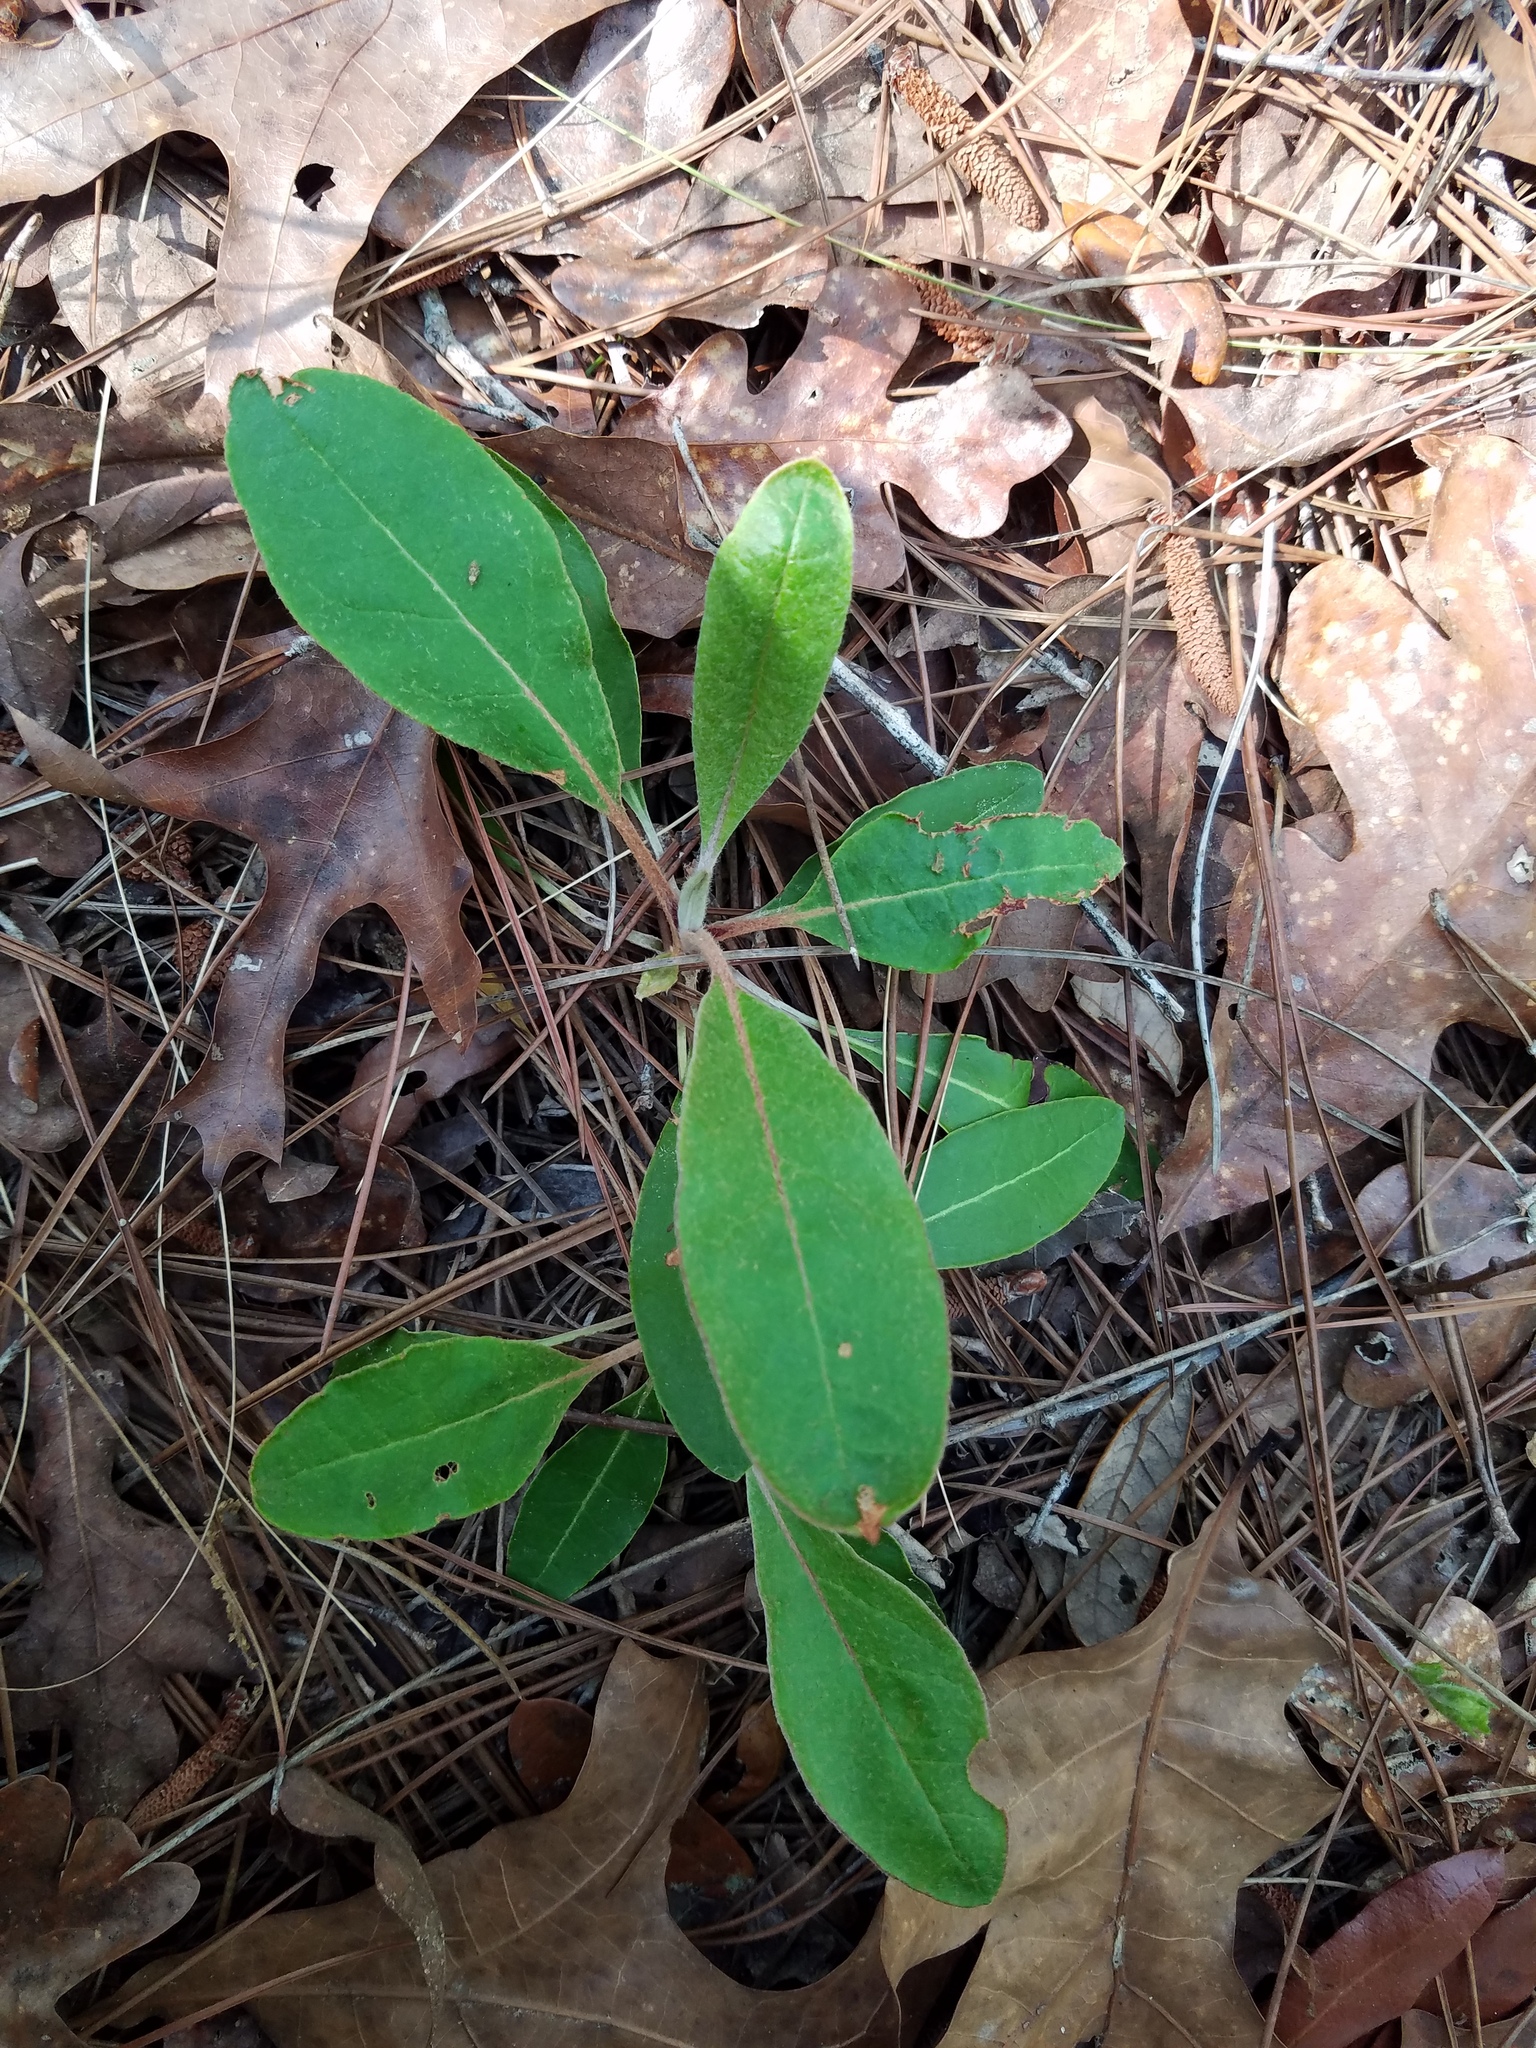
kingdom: Plantae
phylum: Tracheophyta
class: Magnoliopsida
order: Caryophyllales
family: Polygonaceae
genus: Eriogonum
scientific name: Eriogonum tomentosum
